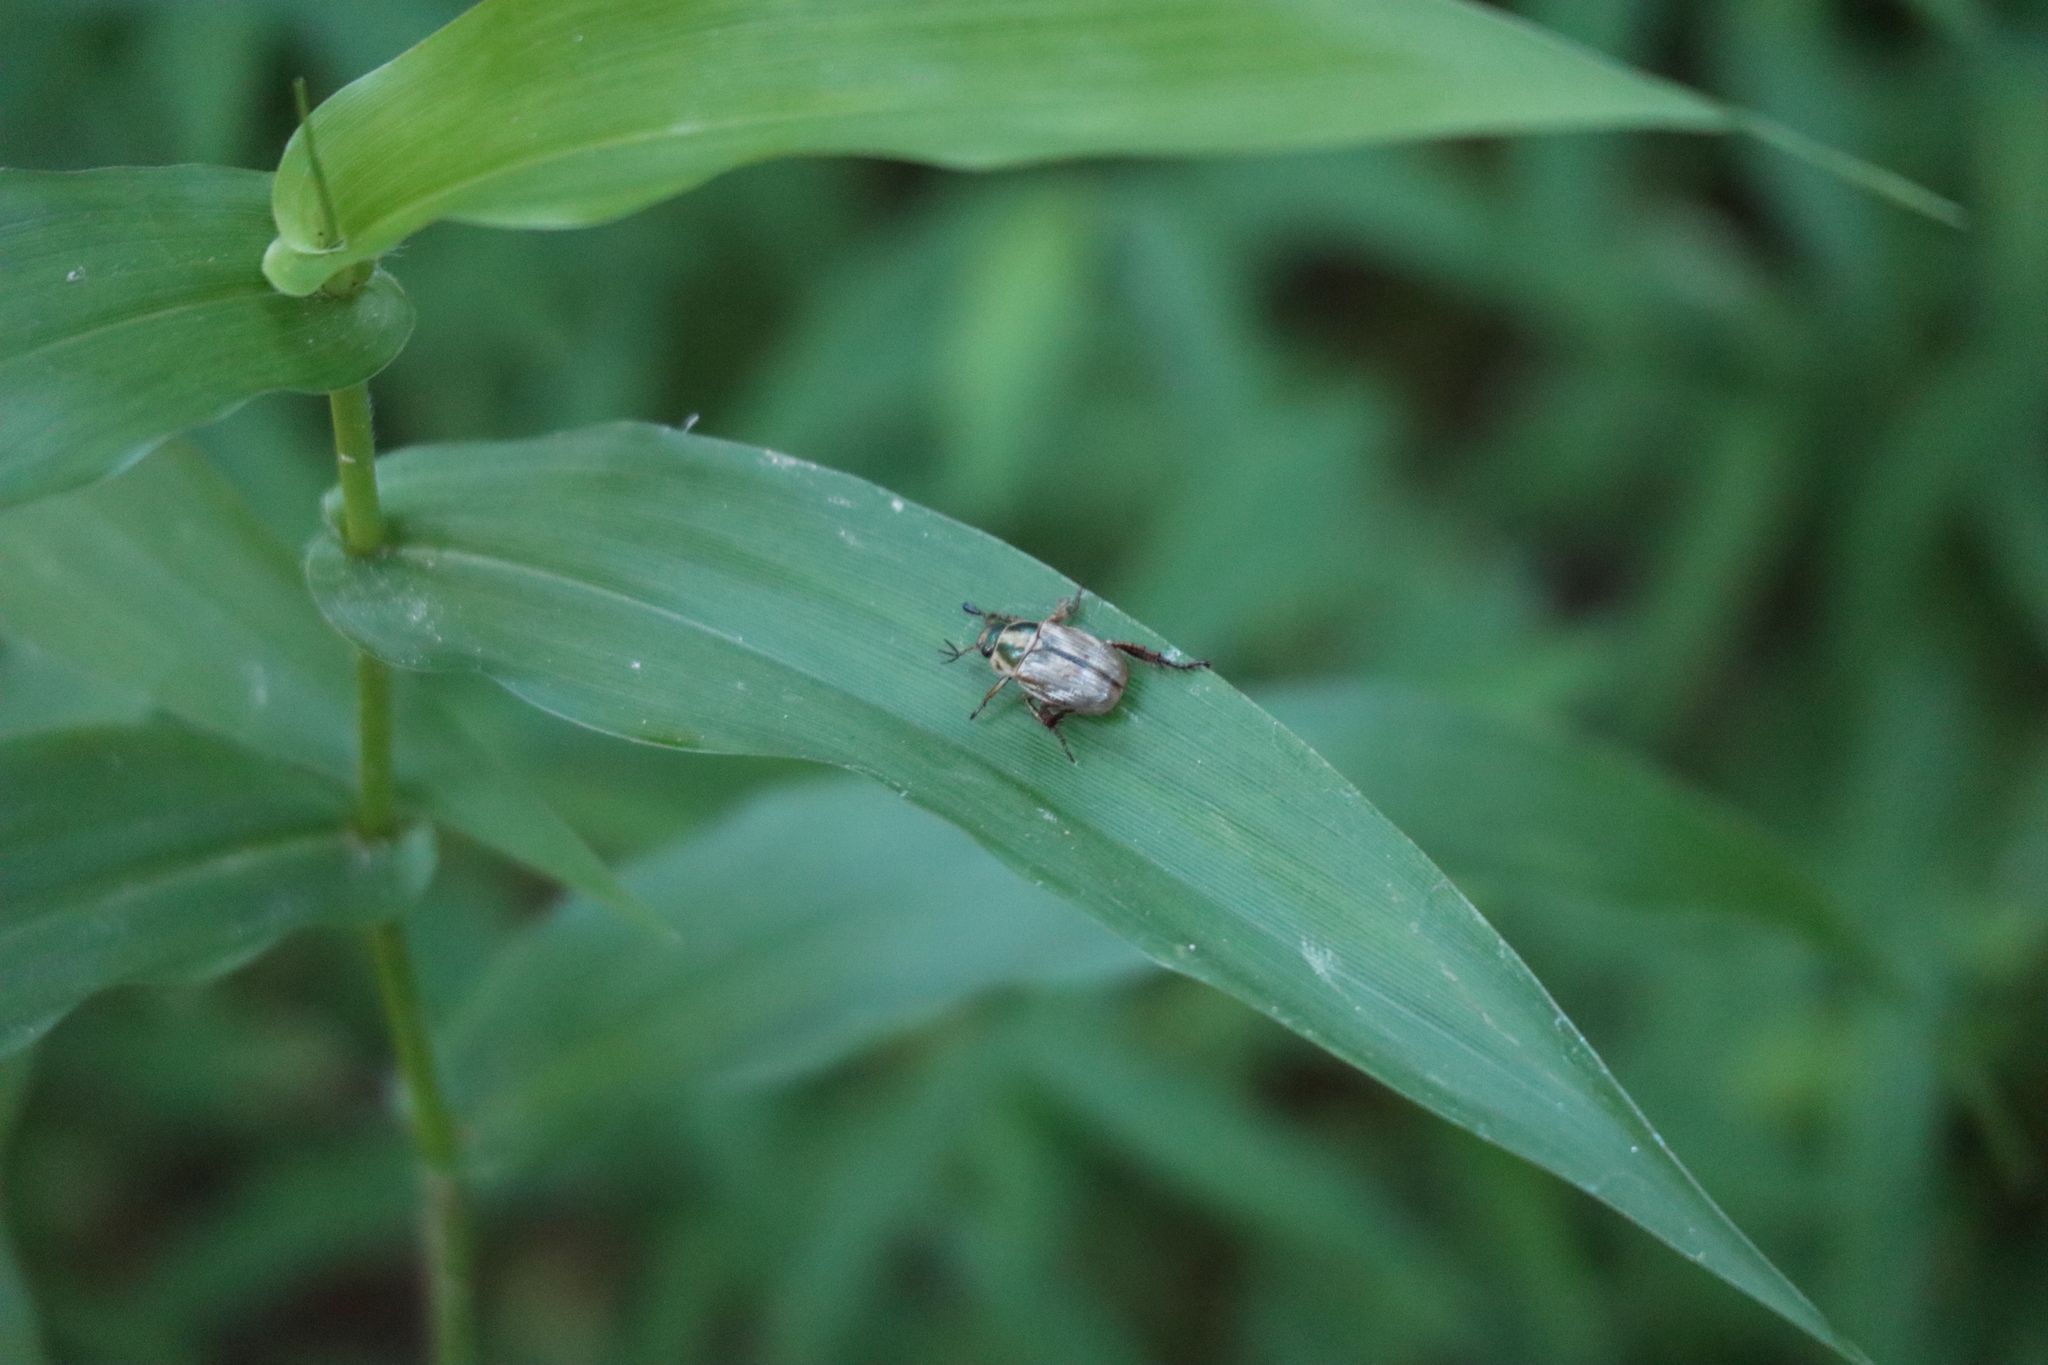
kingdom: Animalia
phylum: Arthropoda
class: Insecta
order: Coleoptera
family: Scarabaeidae
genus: Exomala
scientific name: Exomala orientalis
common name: Oriental beetle
